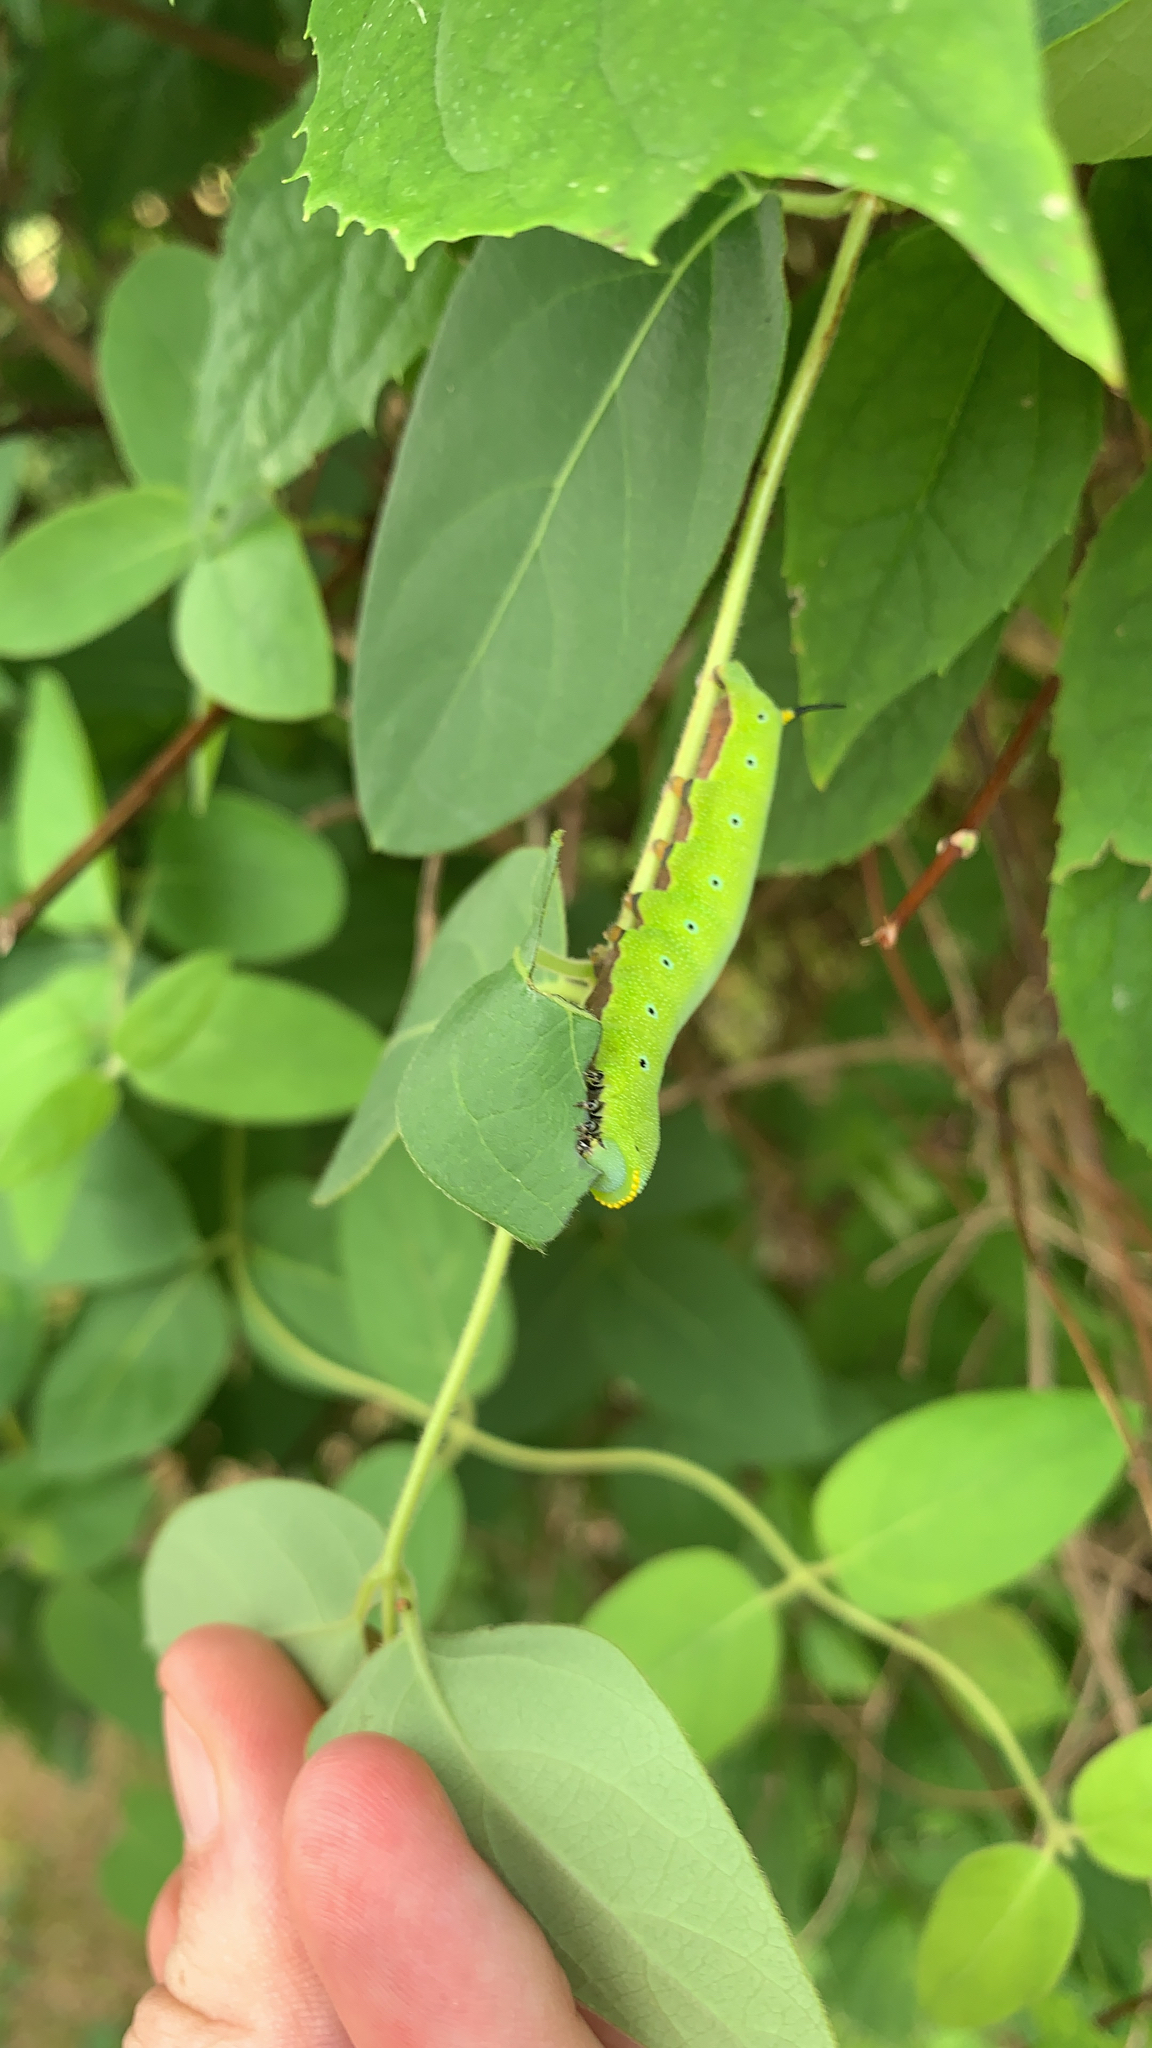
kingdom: Animalia
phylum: Arthropoda
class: Insecta
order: Lepidoptera
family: Sphingidae
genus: Hemaris
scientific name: Hemaris diffinis
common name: Bumblebee moth
